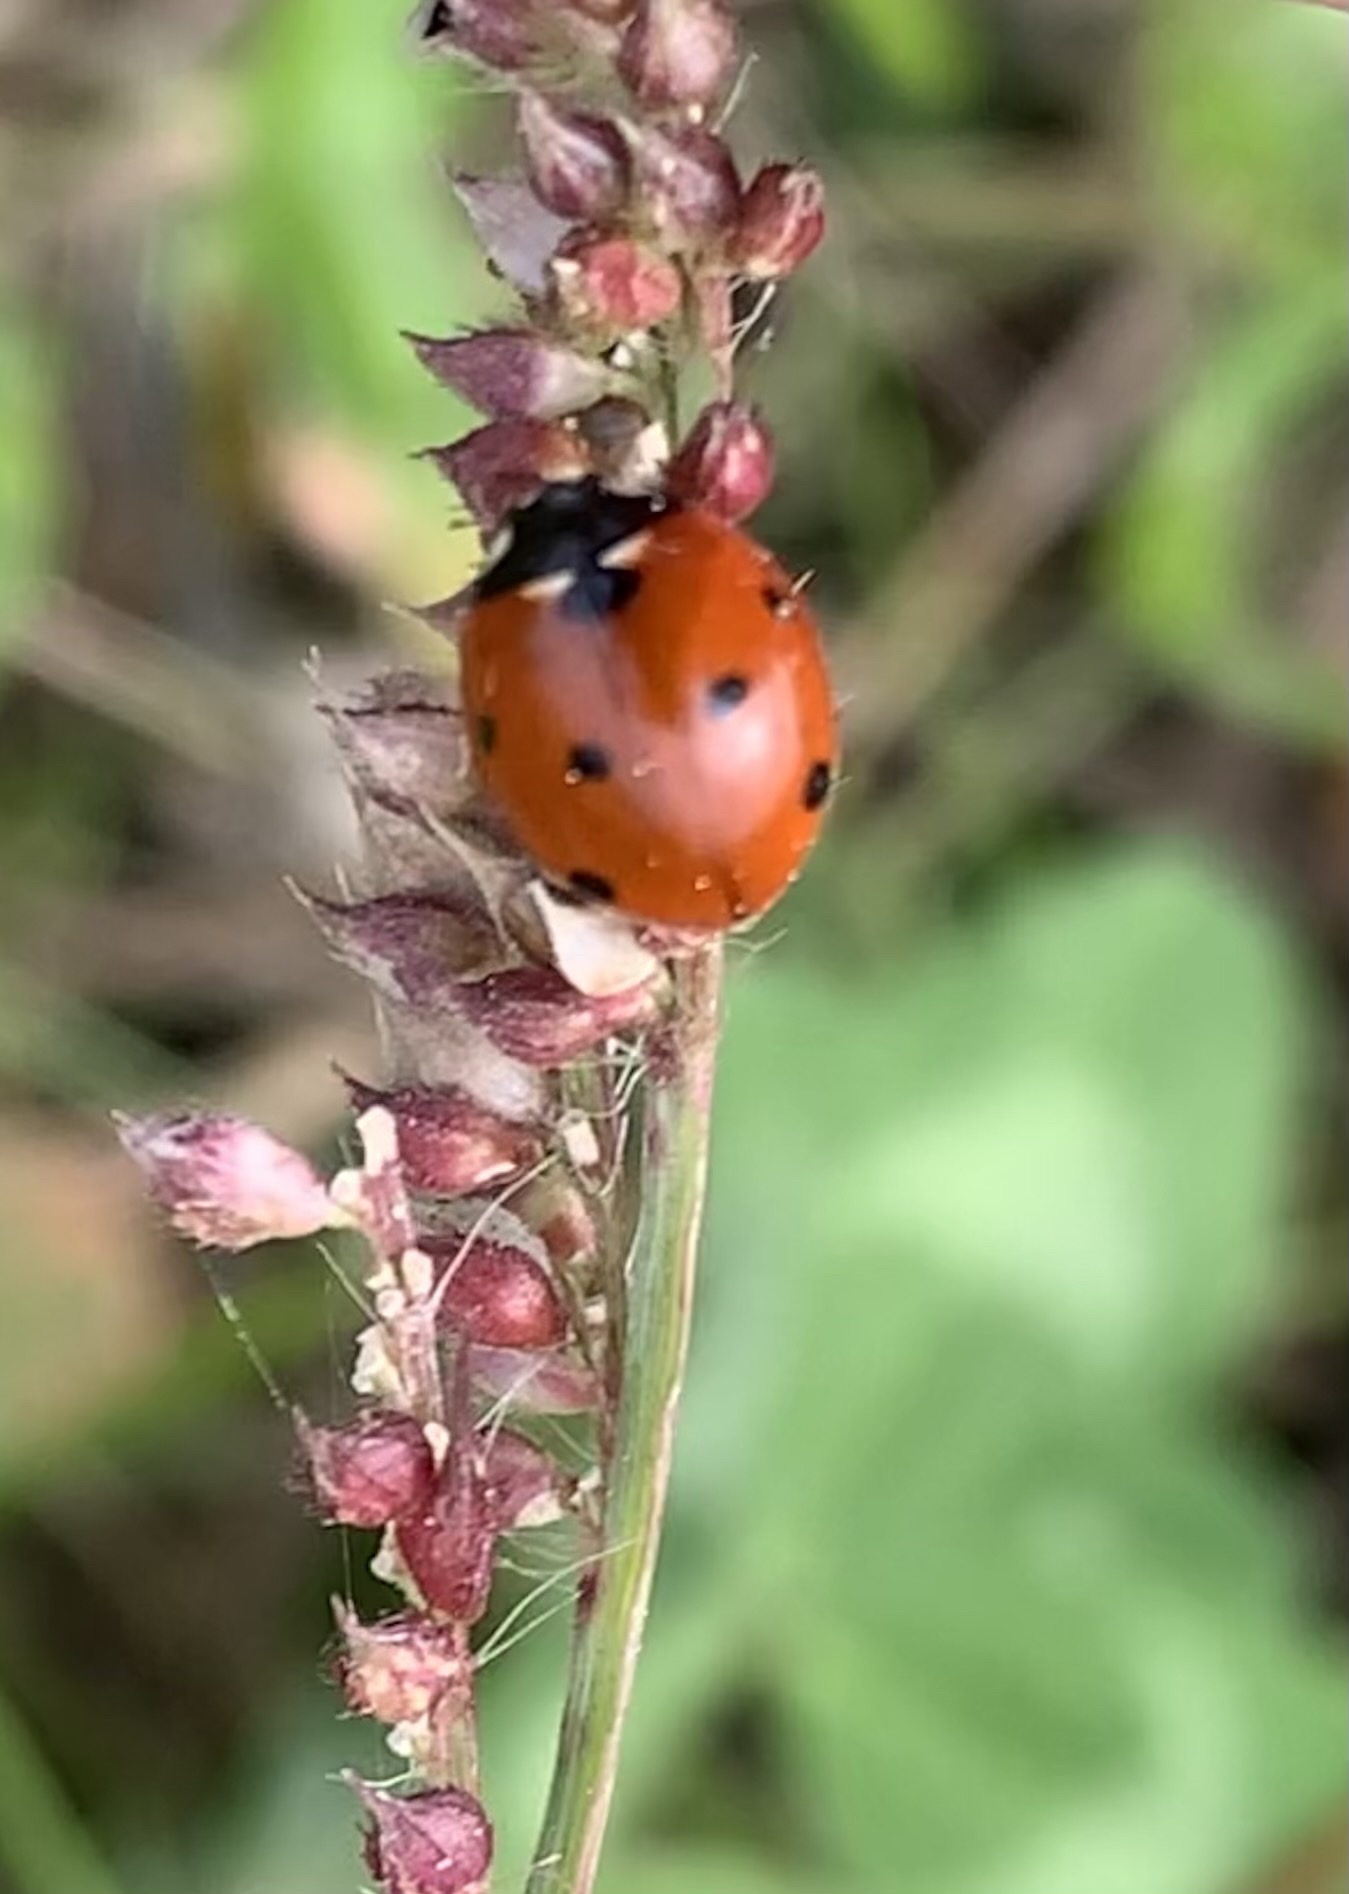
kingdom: Animalia
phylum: Arthropoda
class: Insecta
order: Coleoptera
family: Coccinellidae
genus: Coccinella
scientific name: Coccinella septempunctata
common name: Sevenspotted lady beetle
